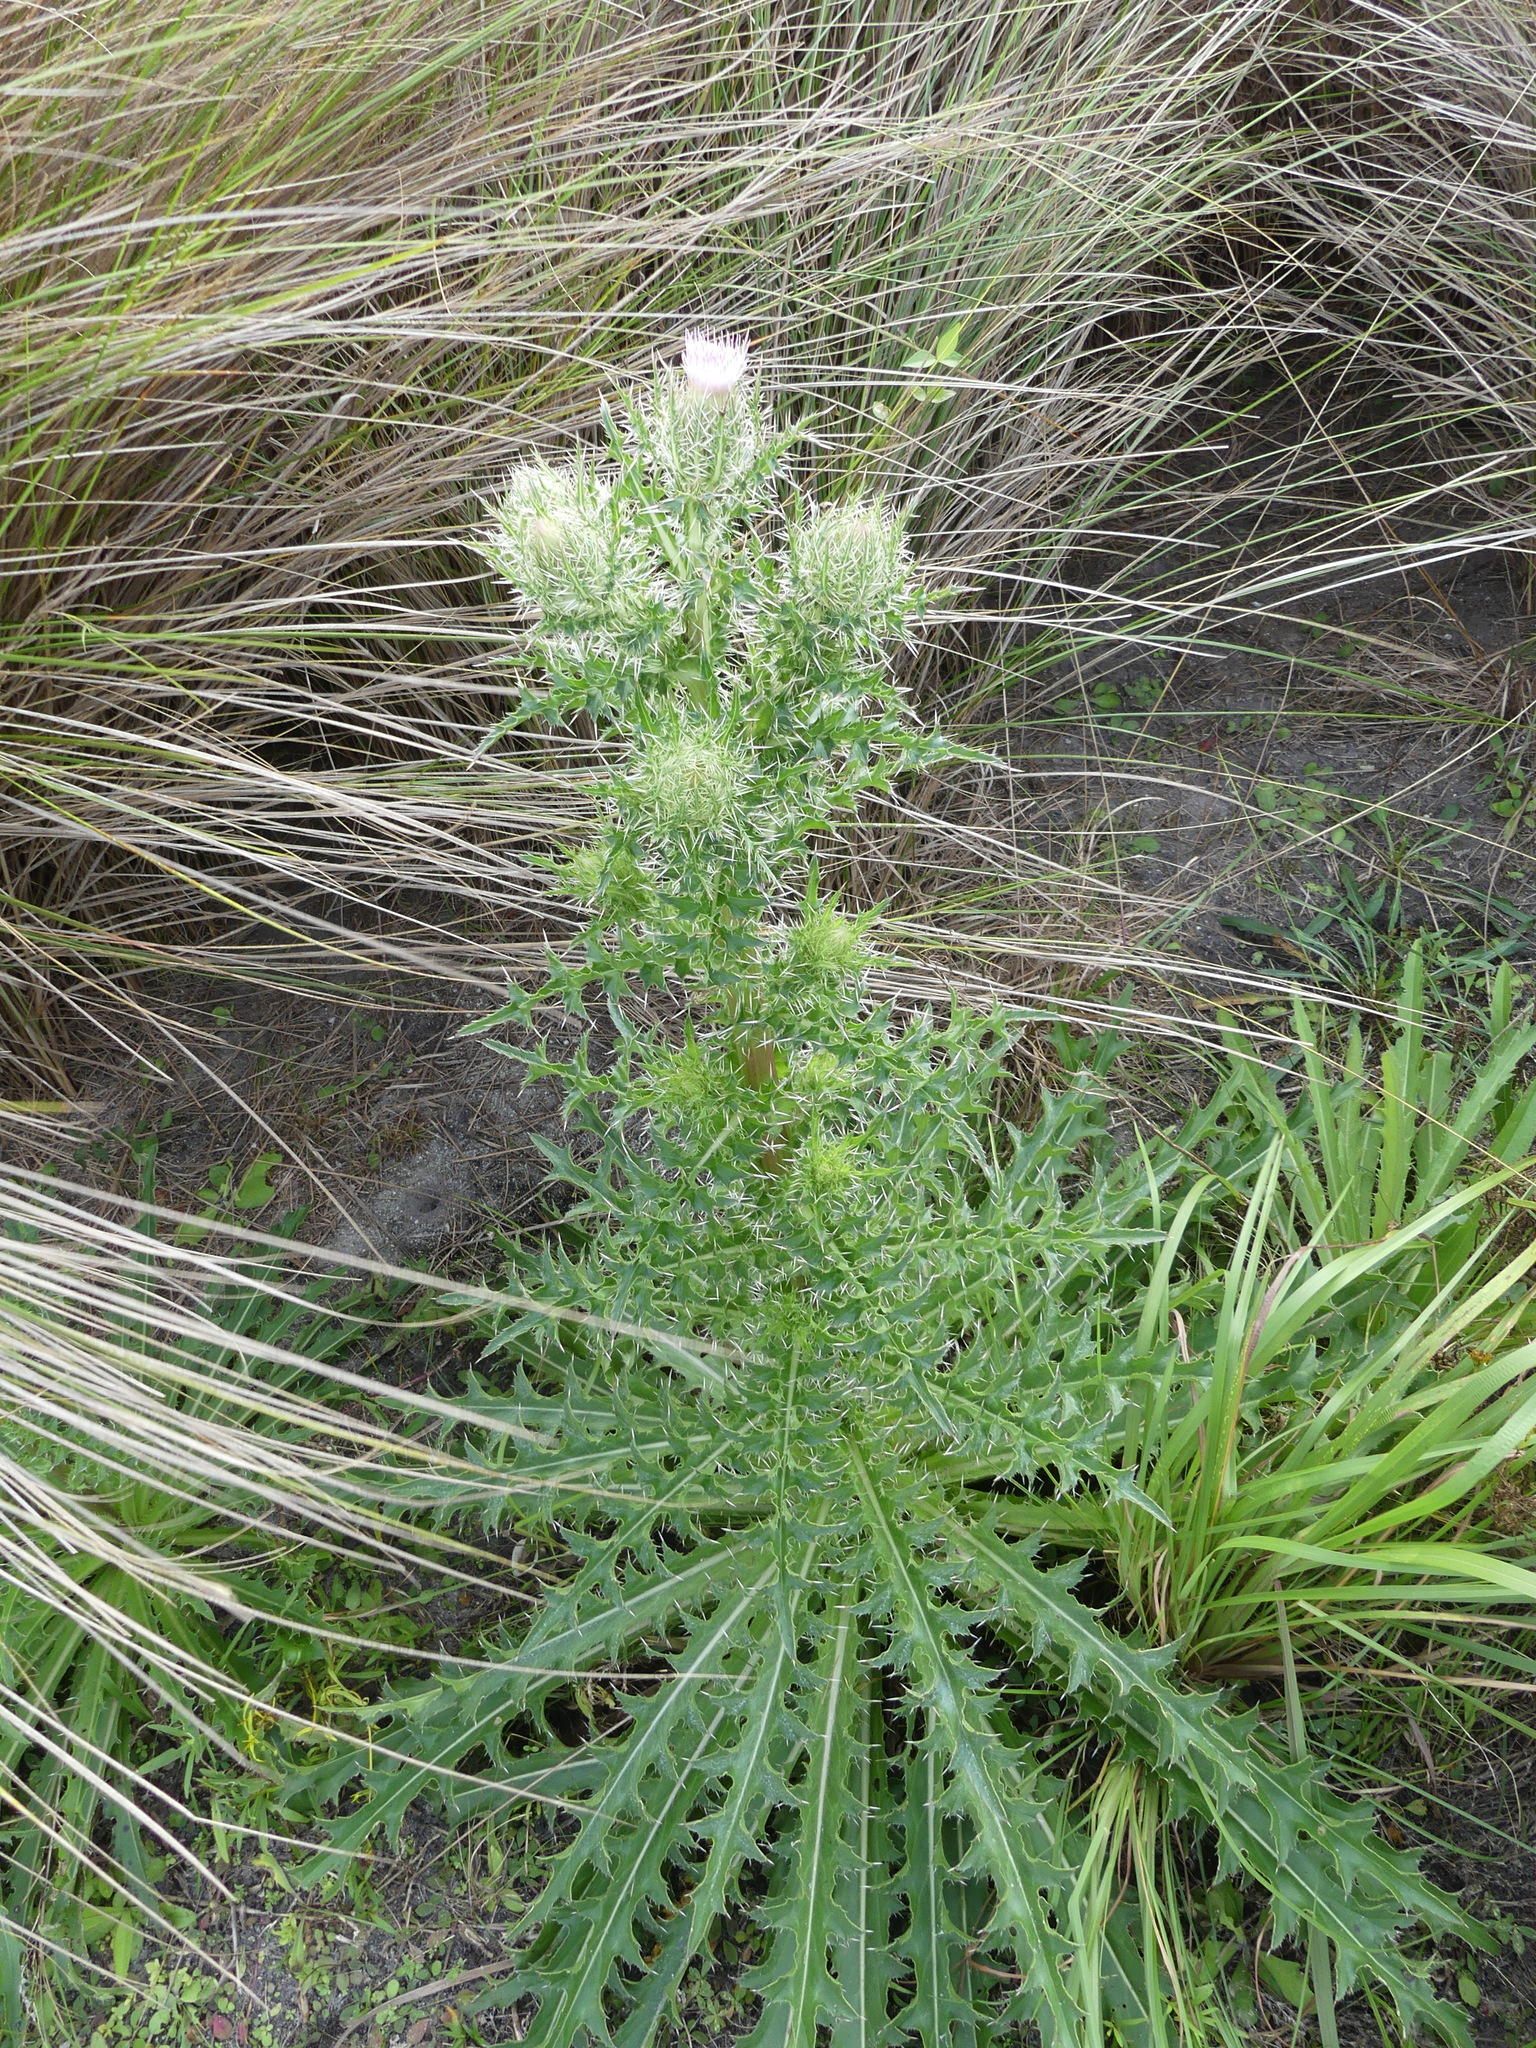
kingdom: Plantae
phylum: Tracheophyta
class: Magnoliopsida
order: Asterales
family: Asteraceae
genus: Cirsium
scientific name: Cirsium horridulum
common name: Bristly thistle
